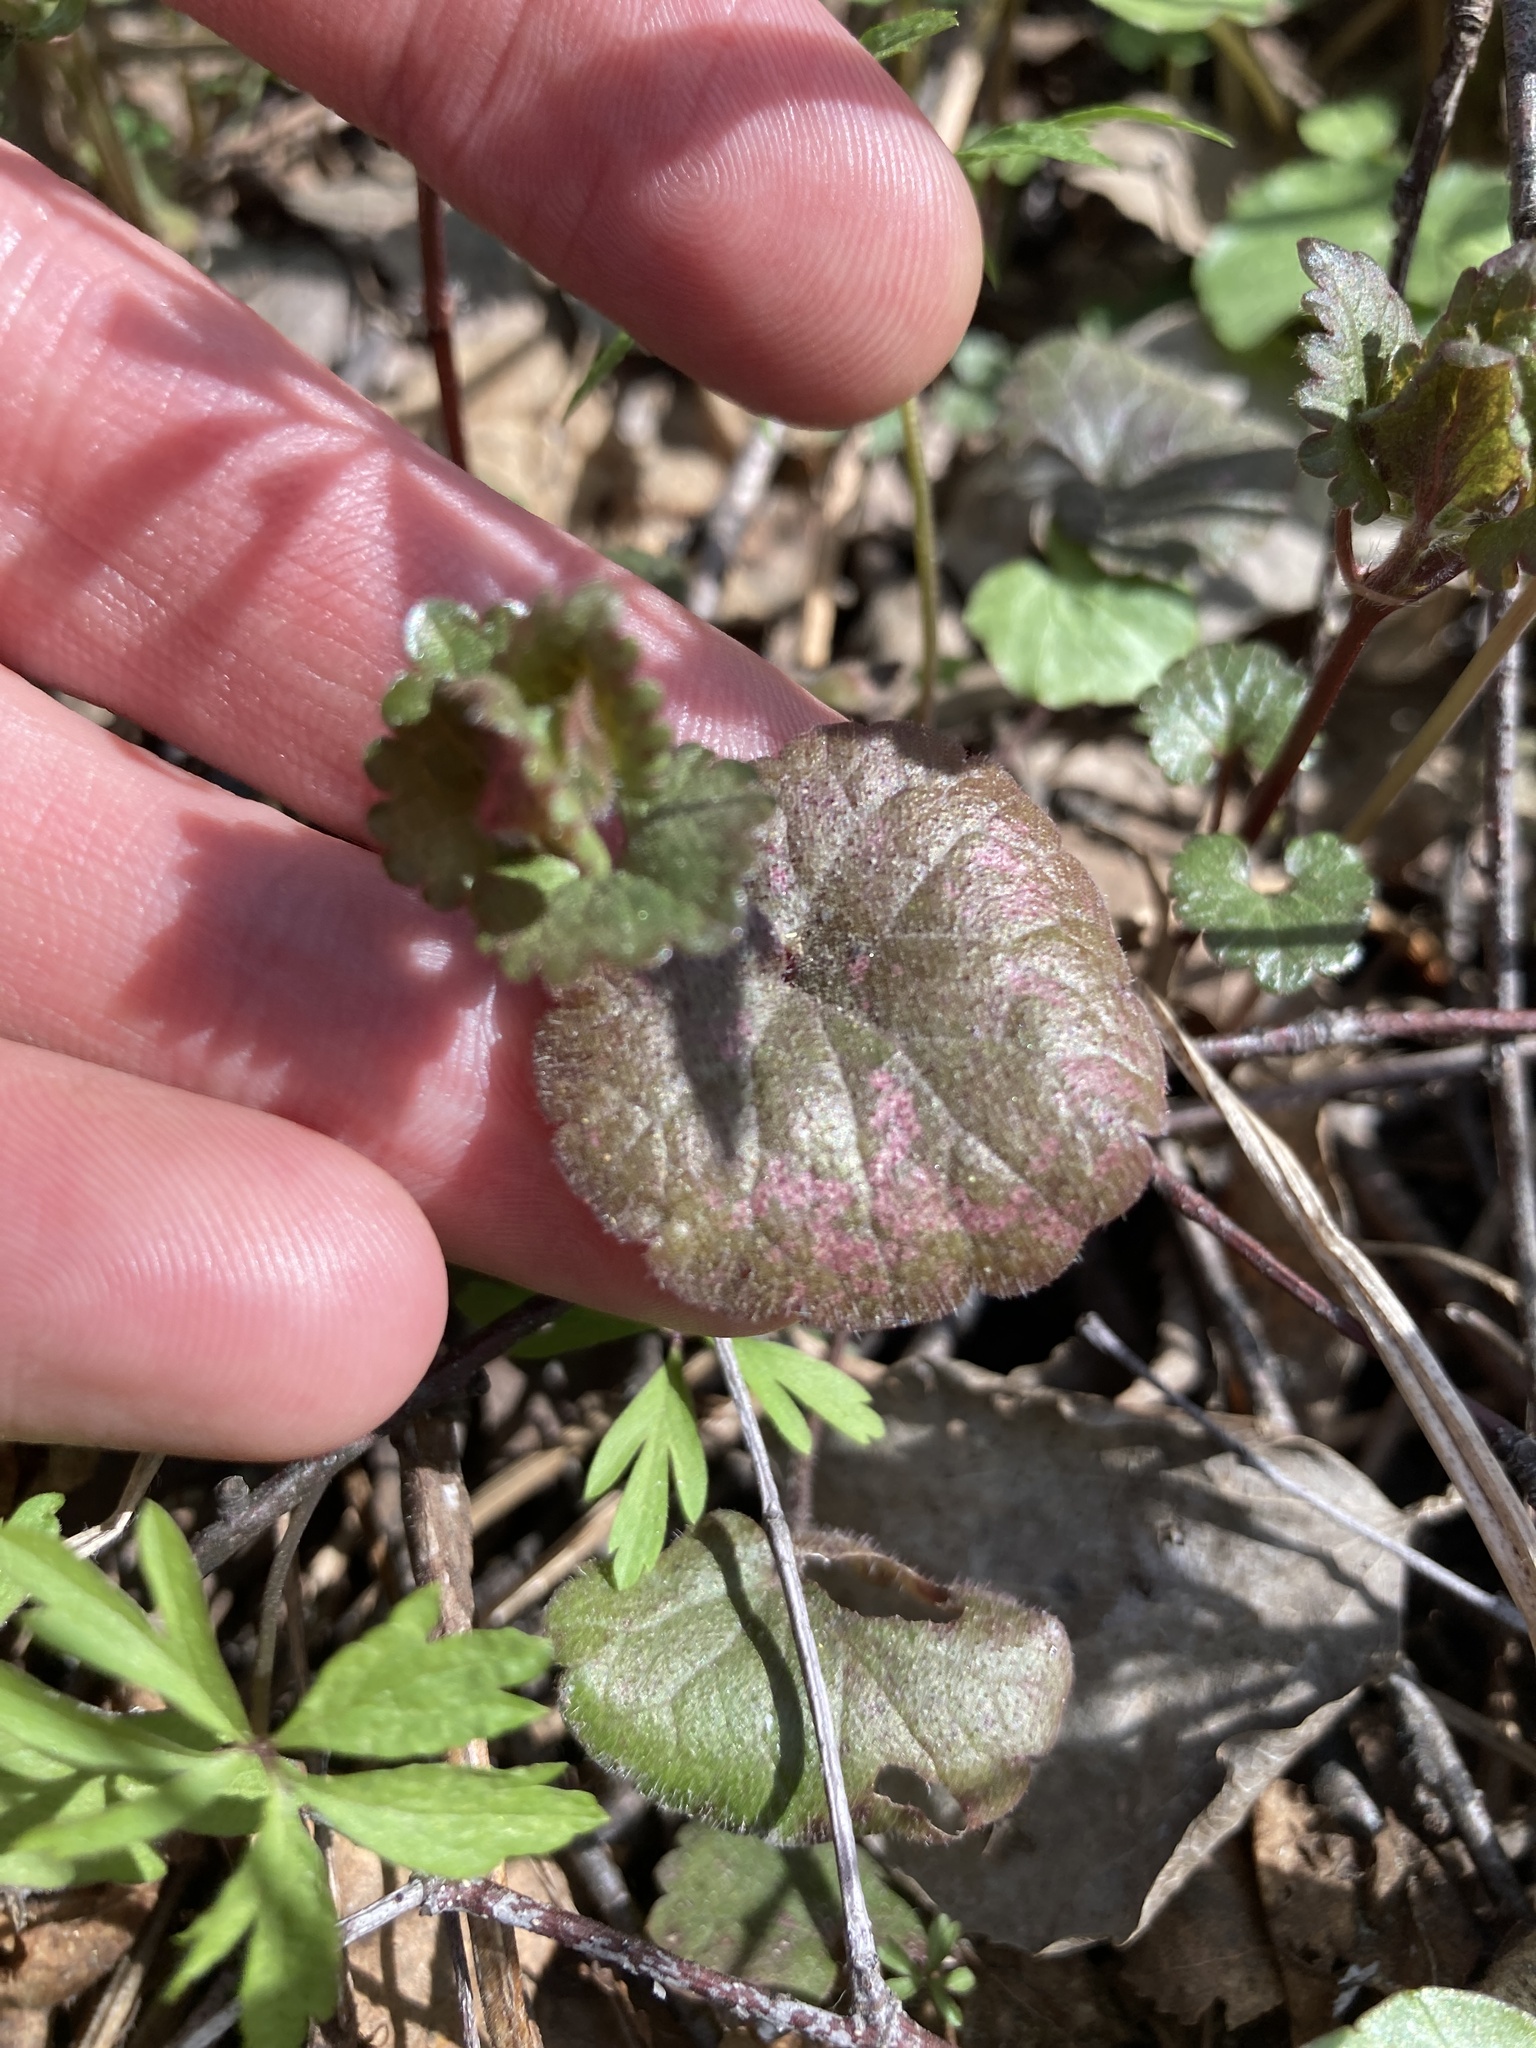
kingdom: Plantae
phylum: Tracheophyta
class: Magnoliopsida
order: Lamiales
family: Lamiaceae
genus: Glechoma
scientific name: Glechoma hederacea
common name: Ground ivy
